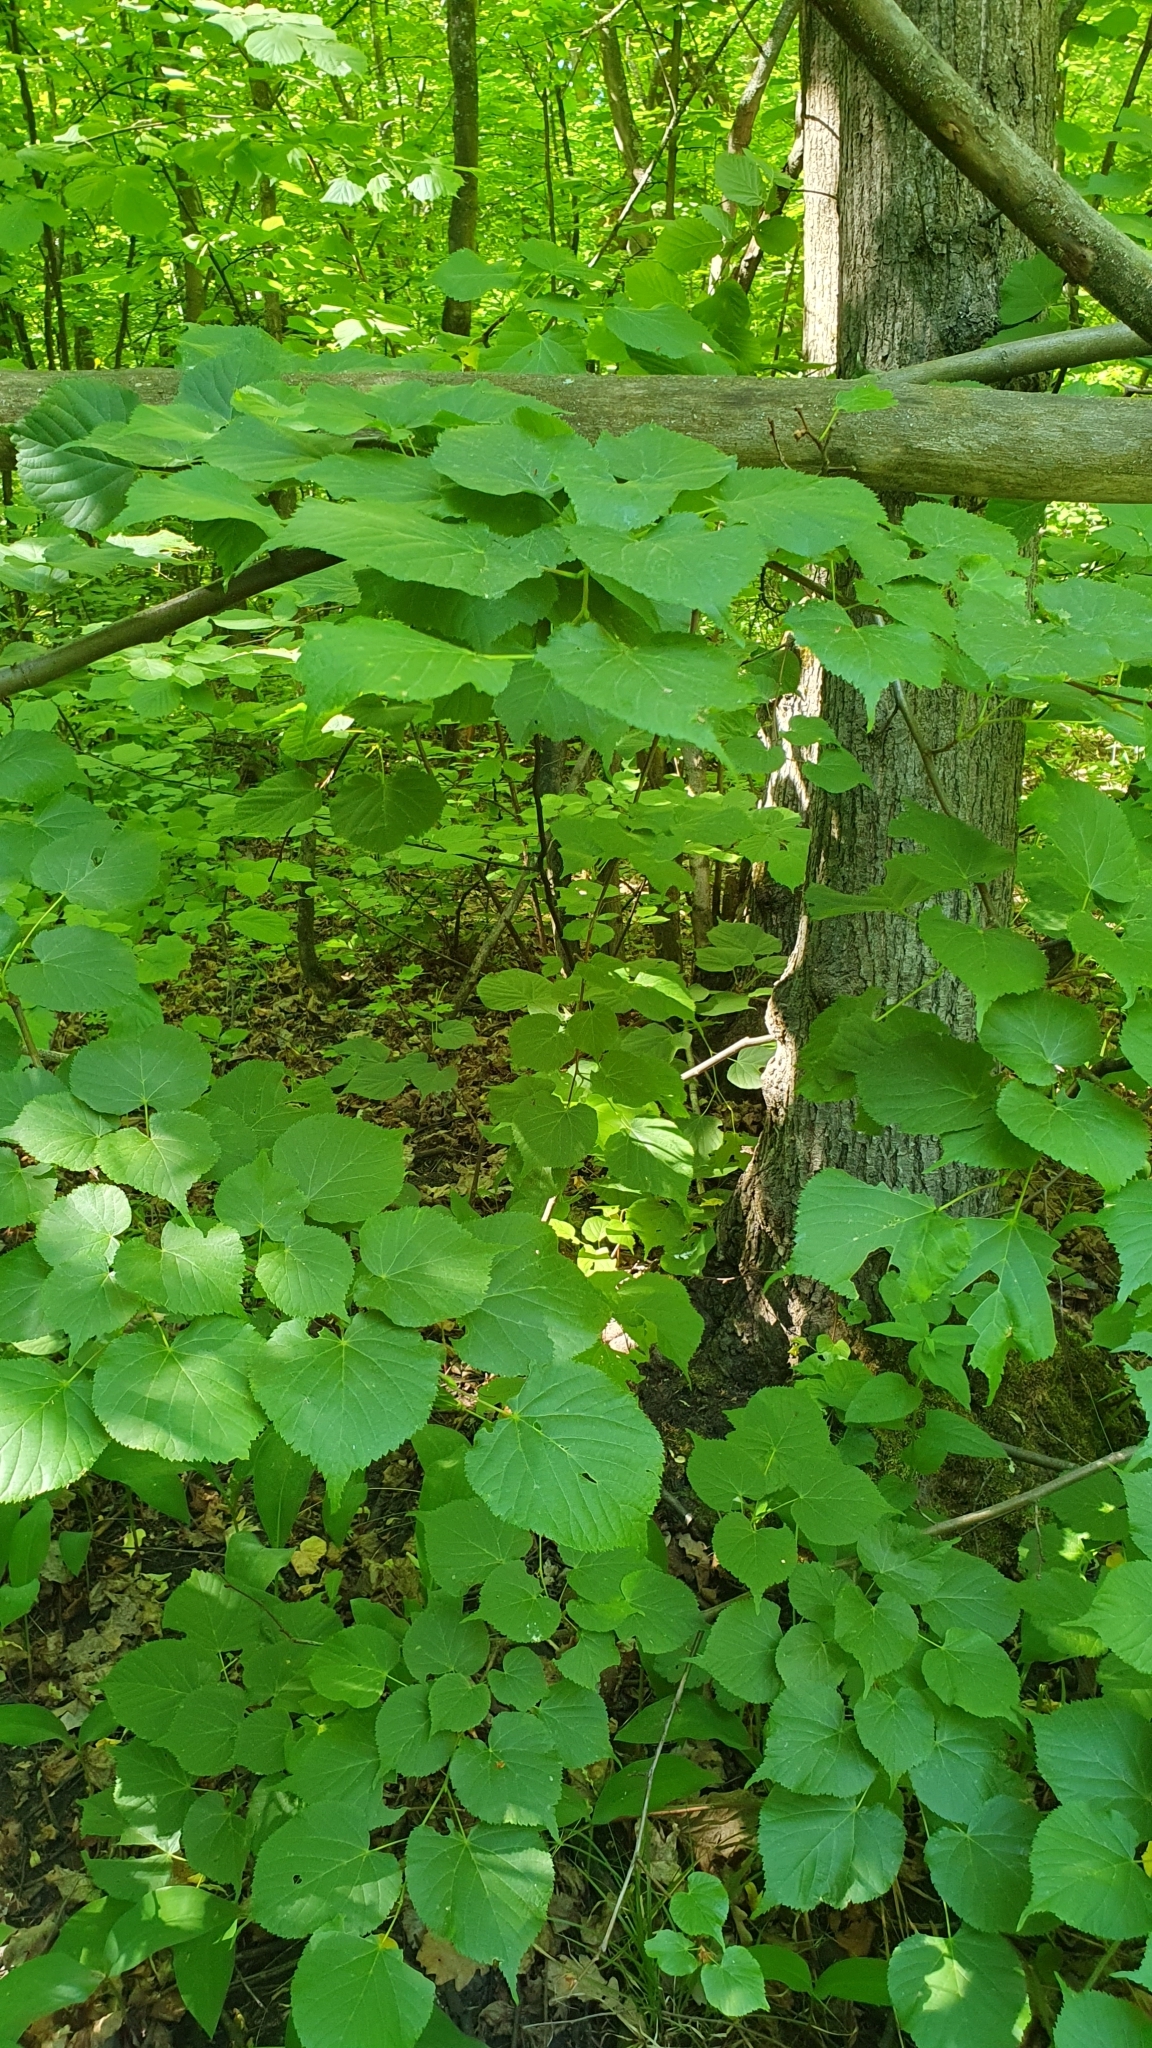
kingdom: Plantae
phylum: Tracheophyta
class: Magnoliopsida
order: Malvales
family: Malvaceae
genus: Tilia
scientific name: Tilia cordata
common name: Small-leaved lime
